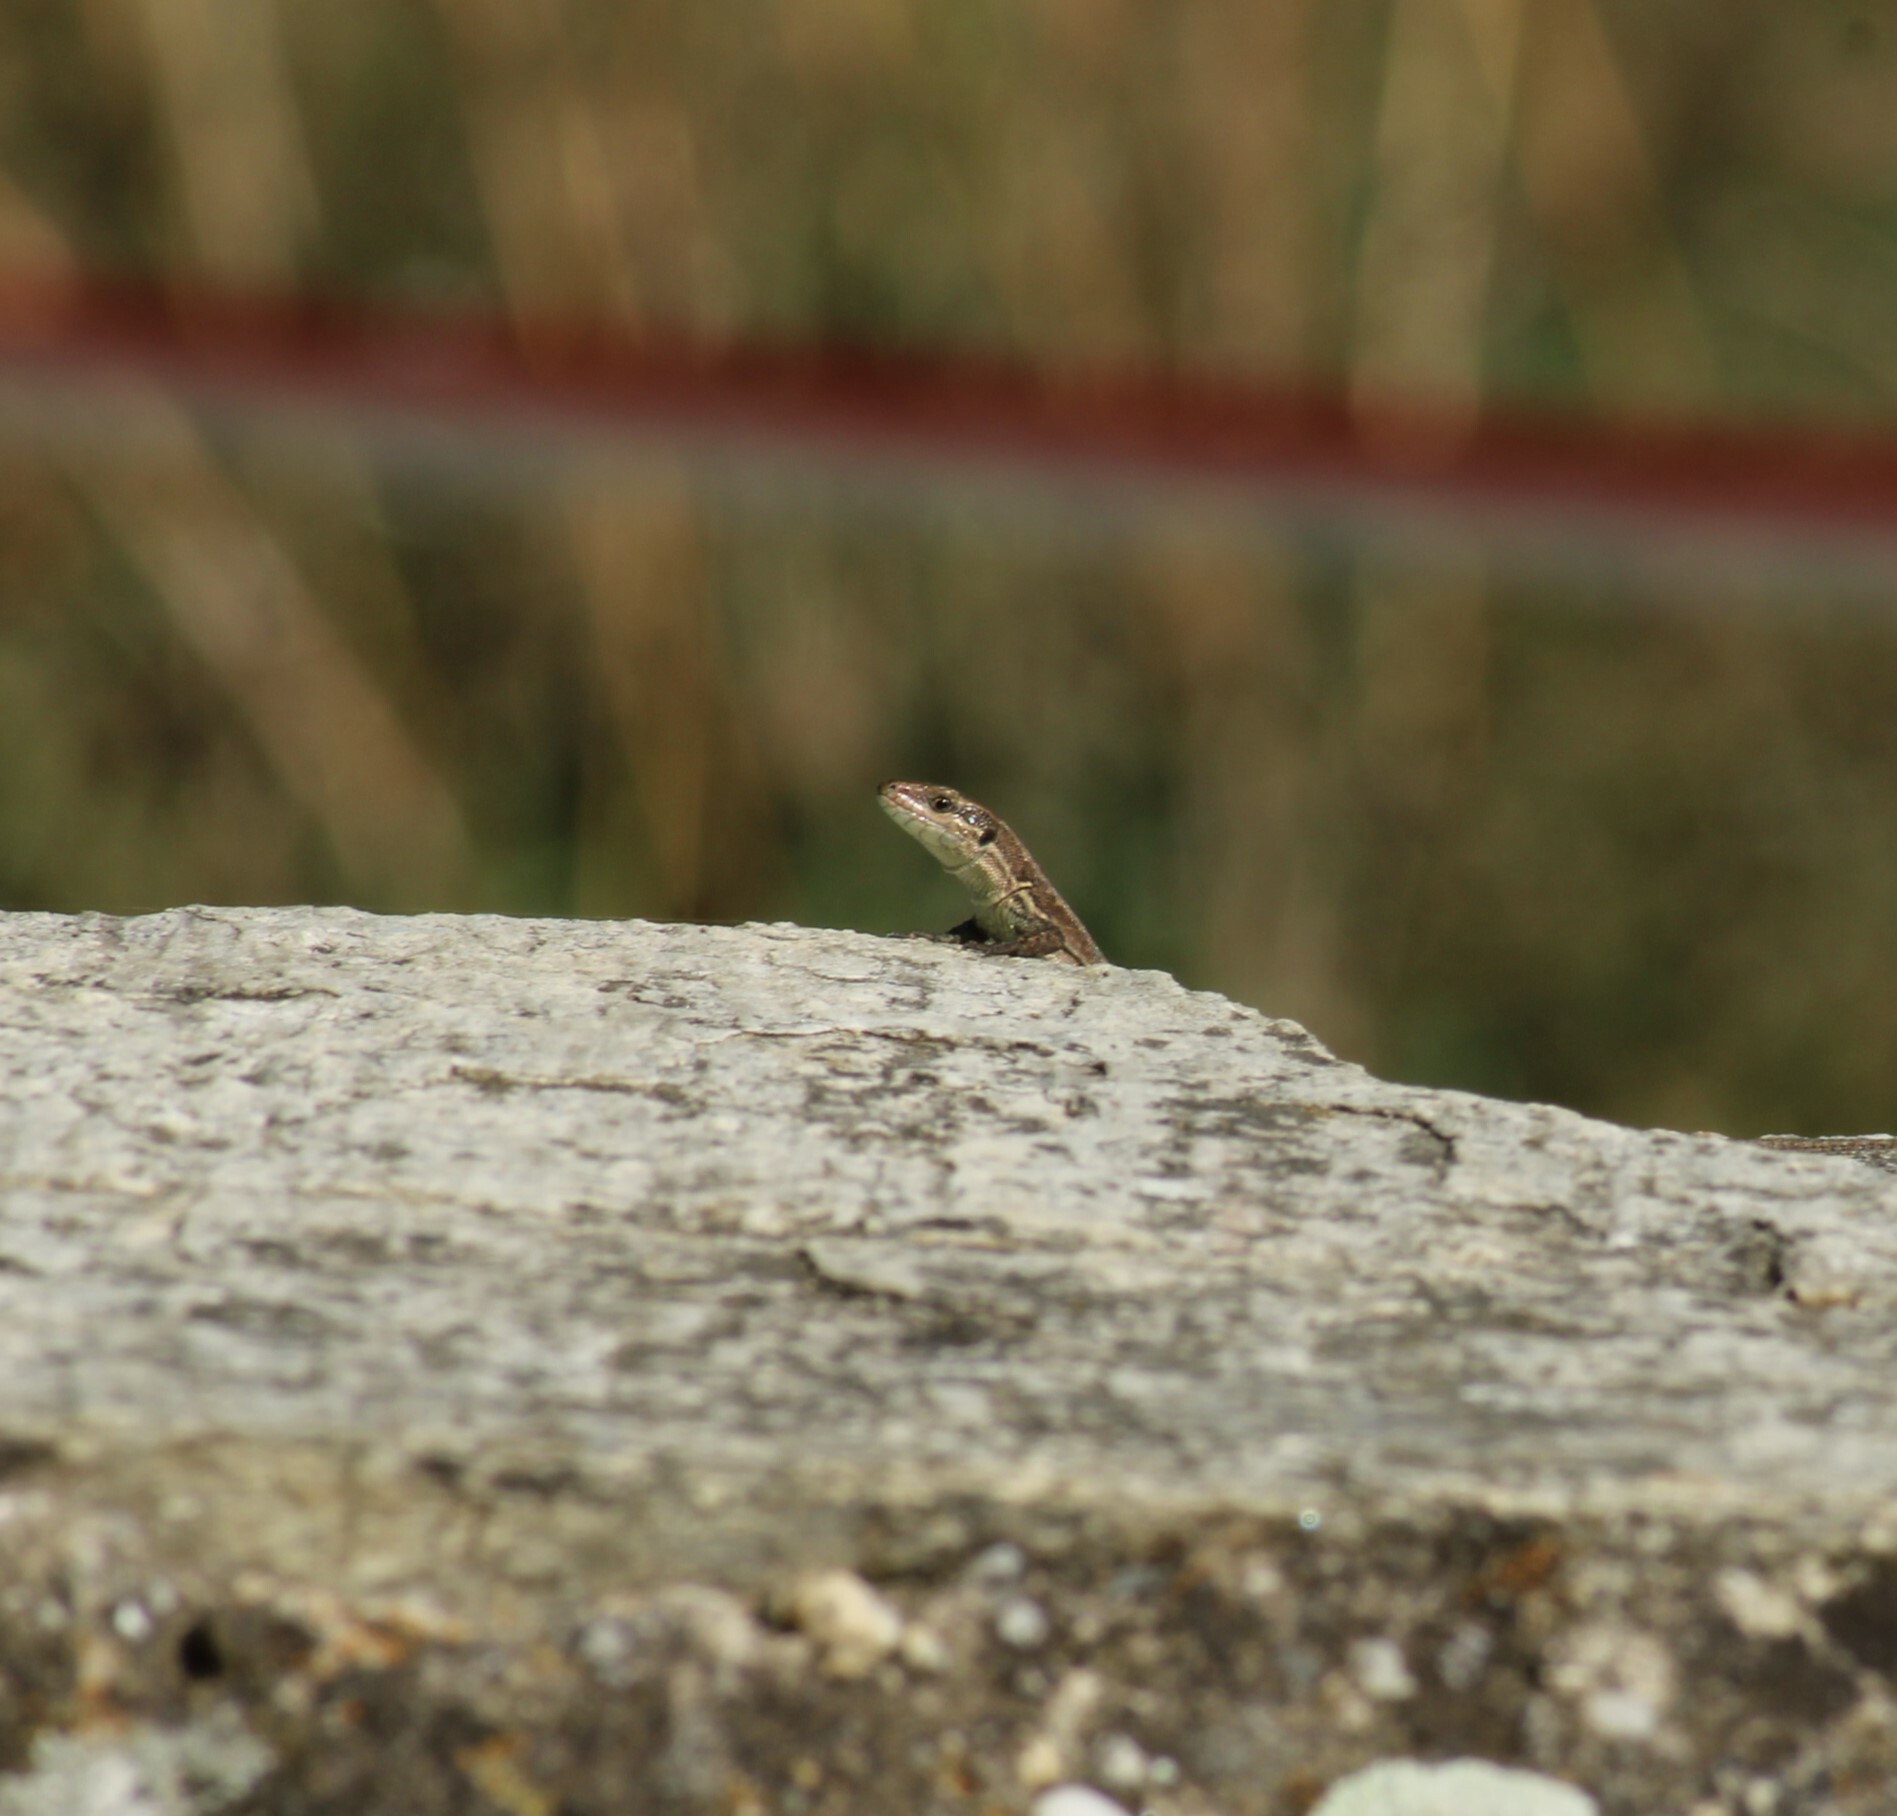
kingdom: Animalia
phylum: Chordata
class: Squamata
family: Lacertidae
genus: Podarcis
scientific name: Podarcis muralis
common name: Common wall lizard
